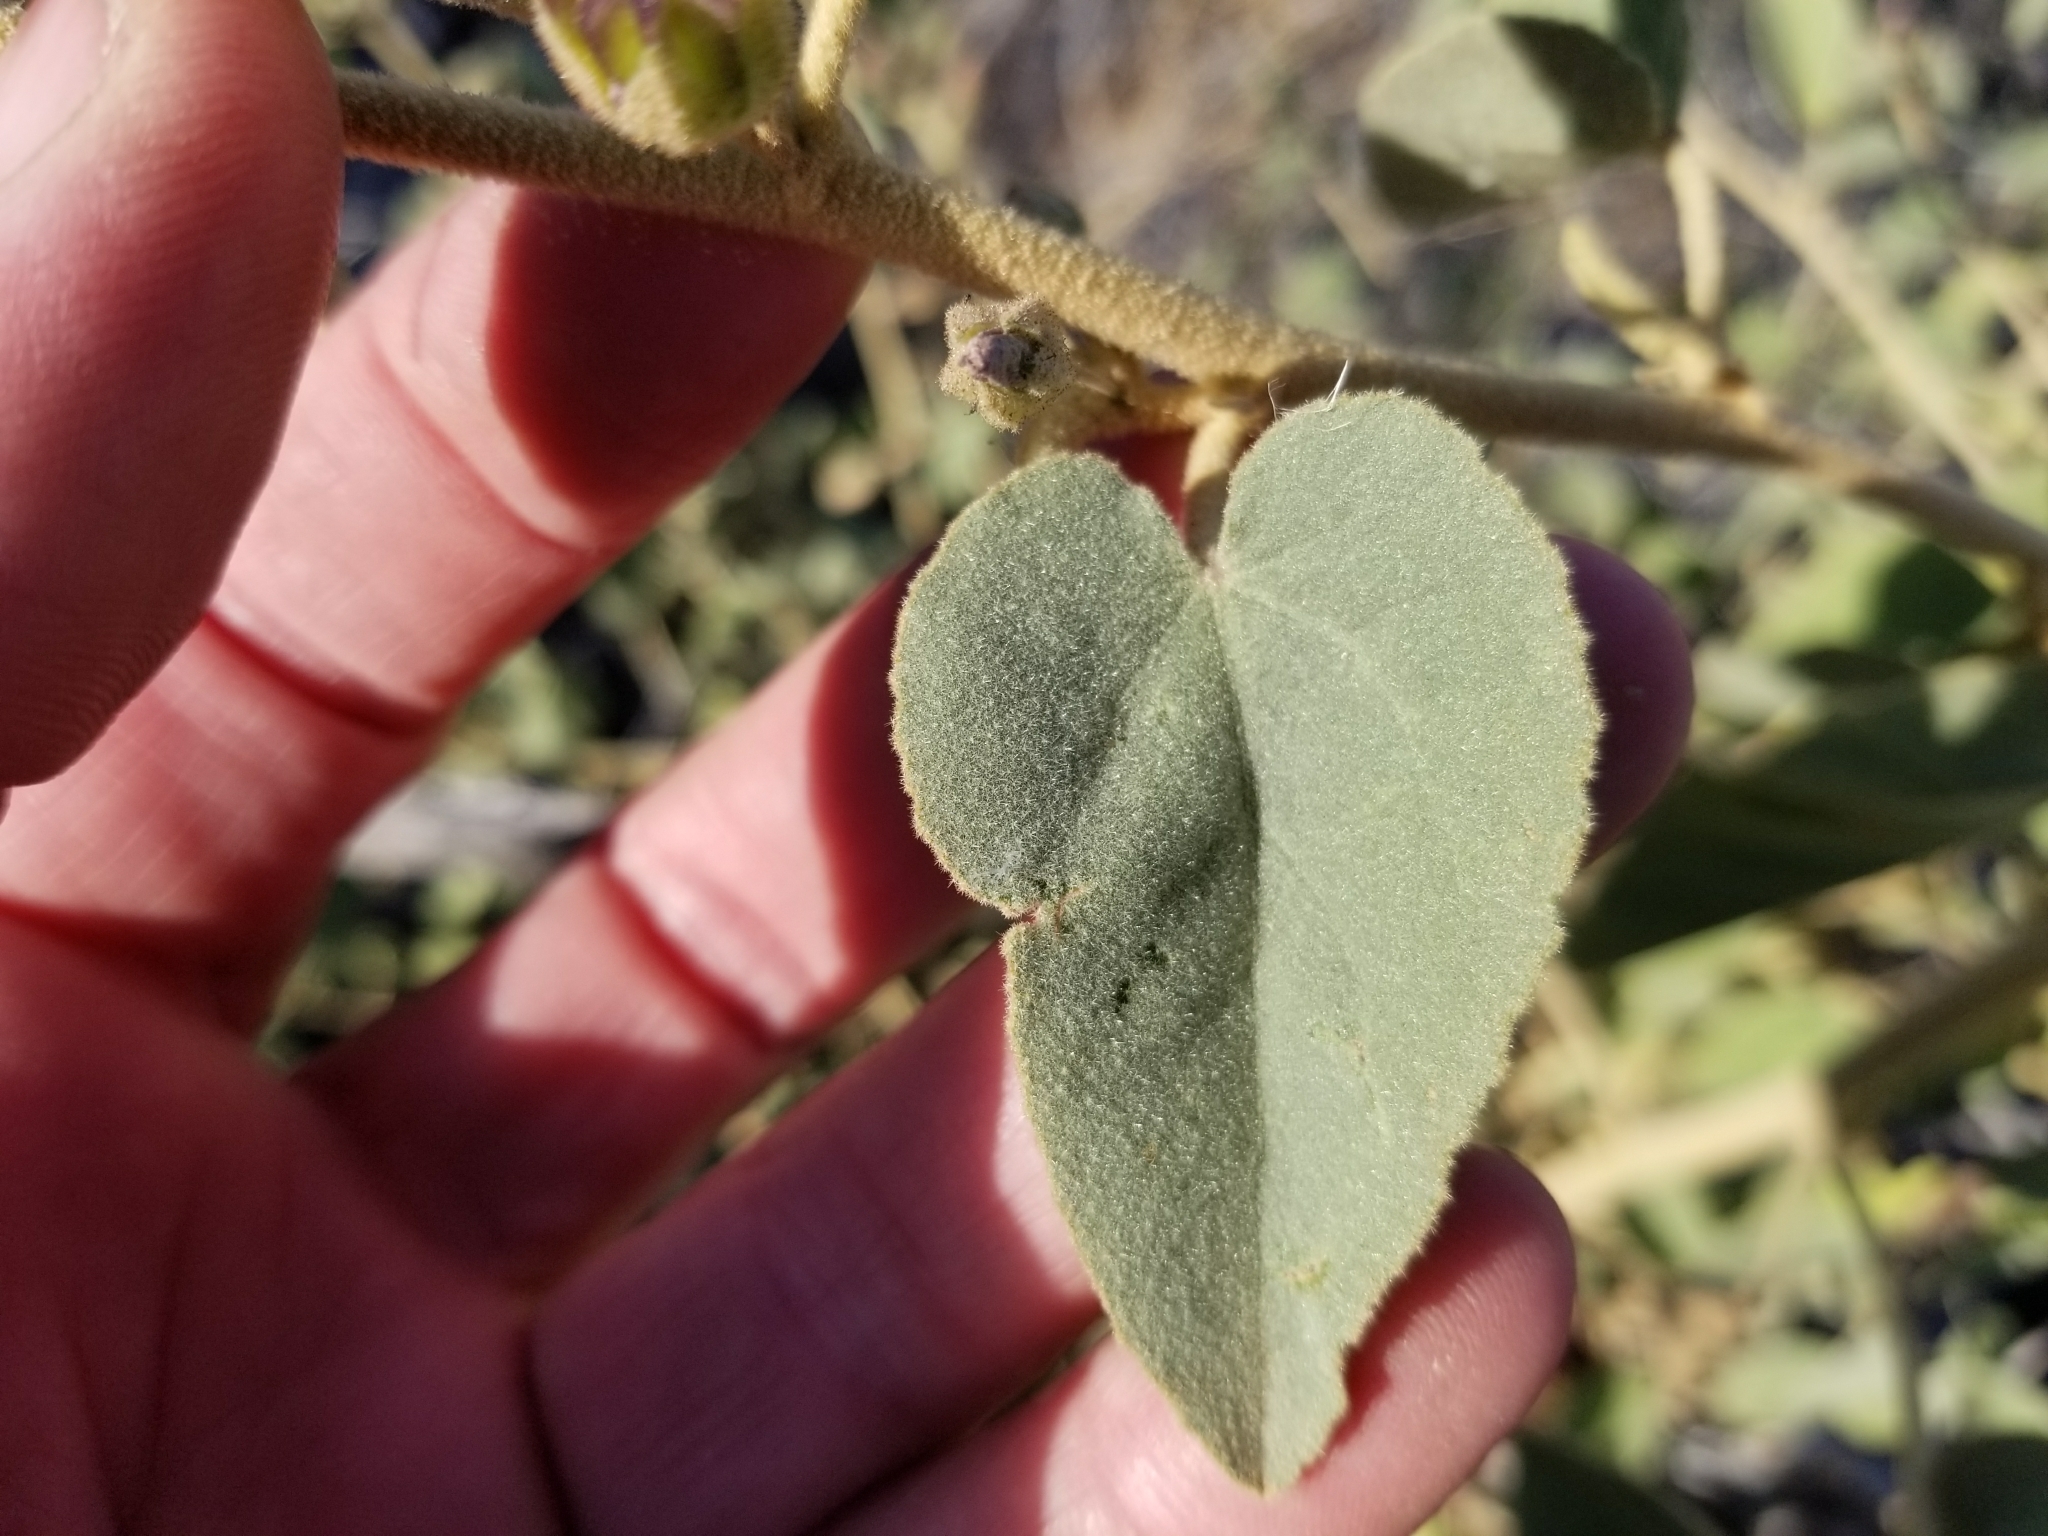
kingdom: Plantae
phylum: Tracheophyta
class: Magnoliopsida
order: Malvales
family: Malvaceae
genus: Horsfordia
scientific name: Horsfordia alata
